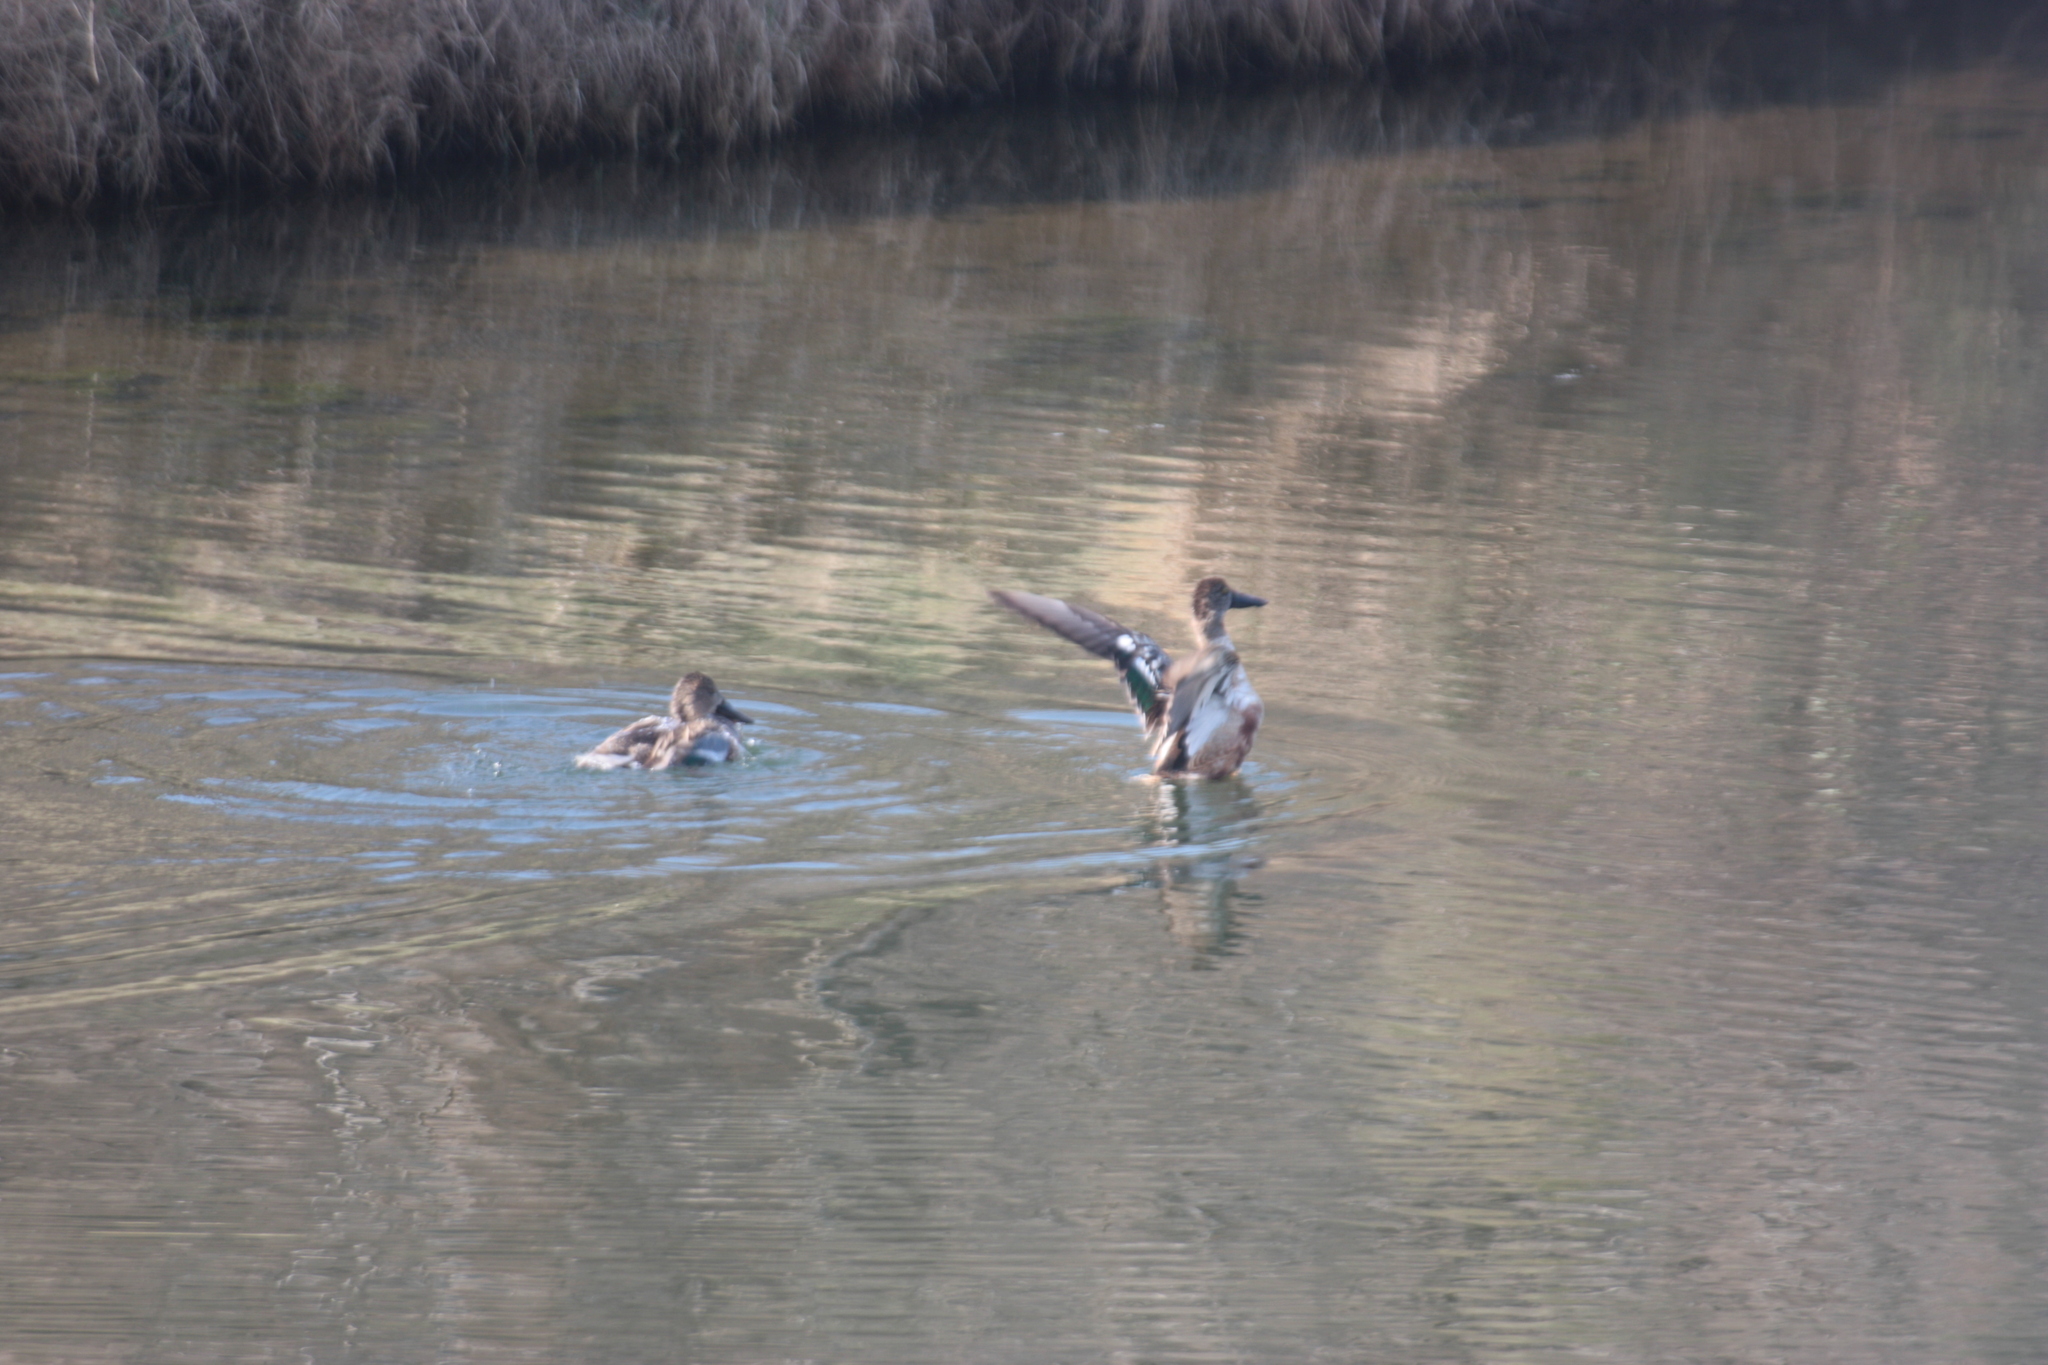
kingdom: Animalia
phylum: Chordata
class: Aves
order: Anseriformes
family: Anatidae
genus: Spatula
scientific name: Spatula clypeata
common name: Northern shoveler
